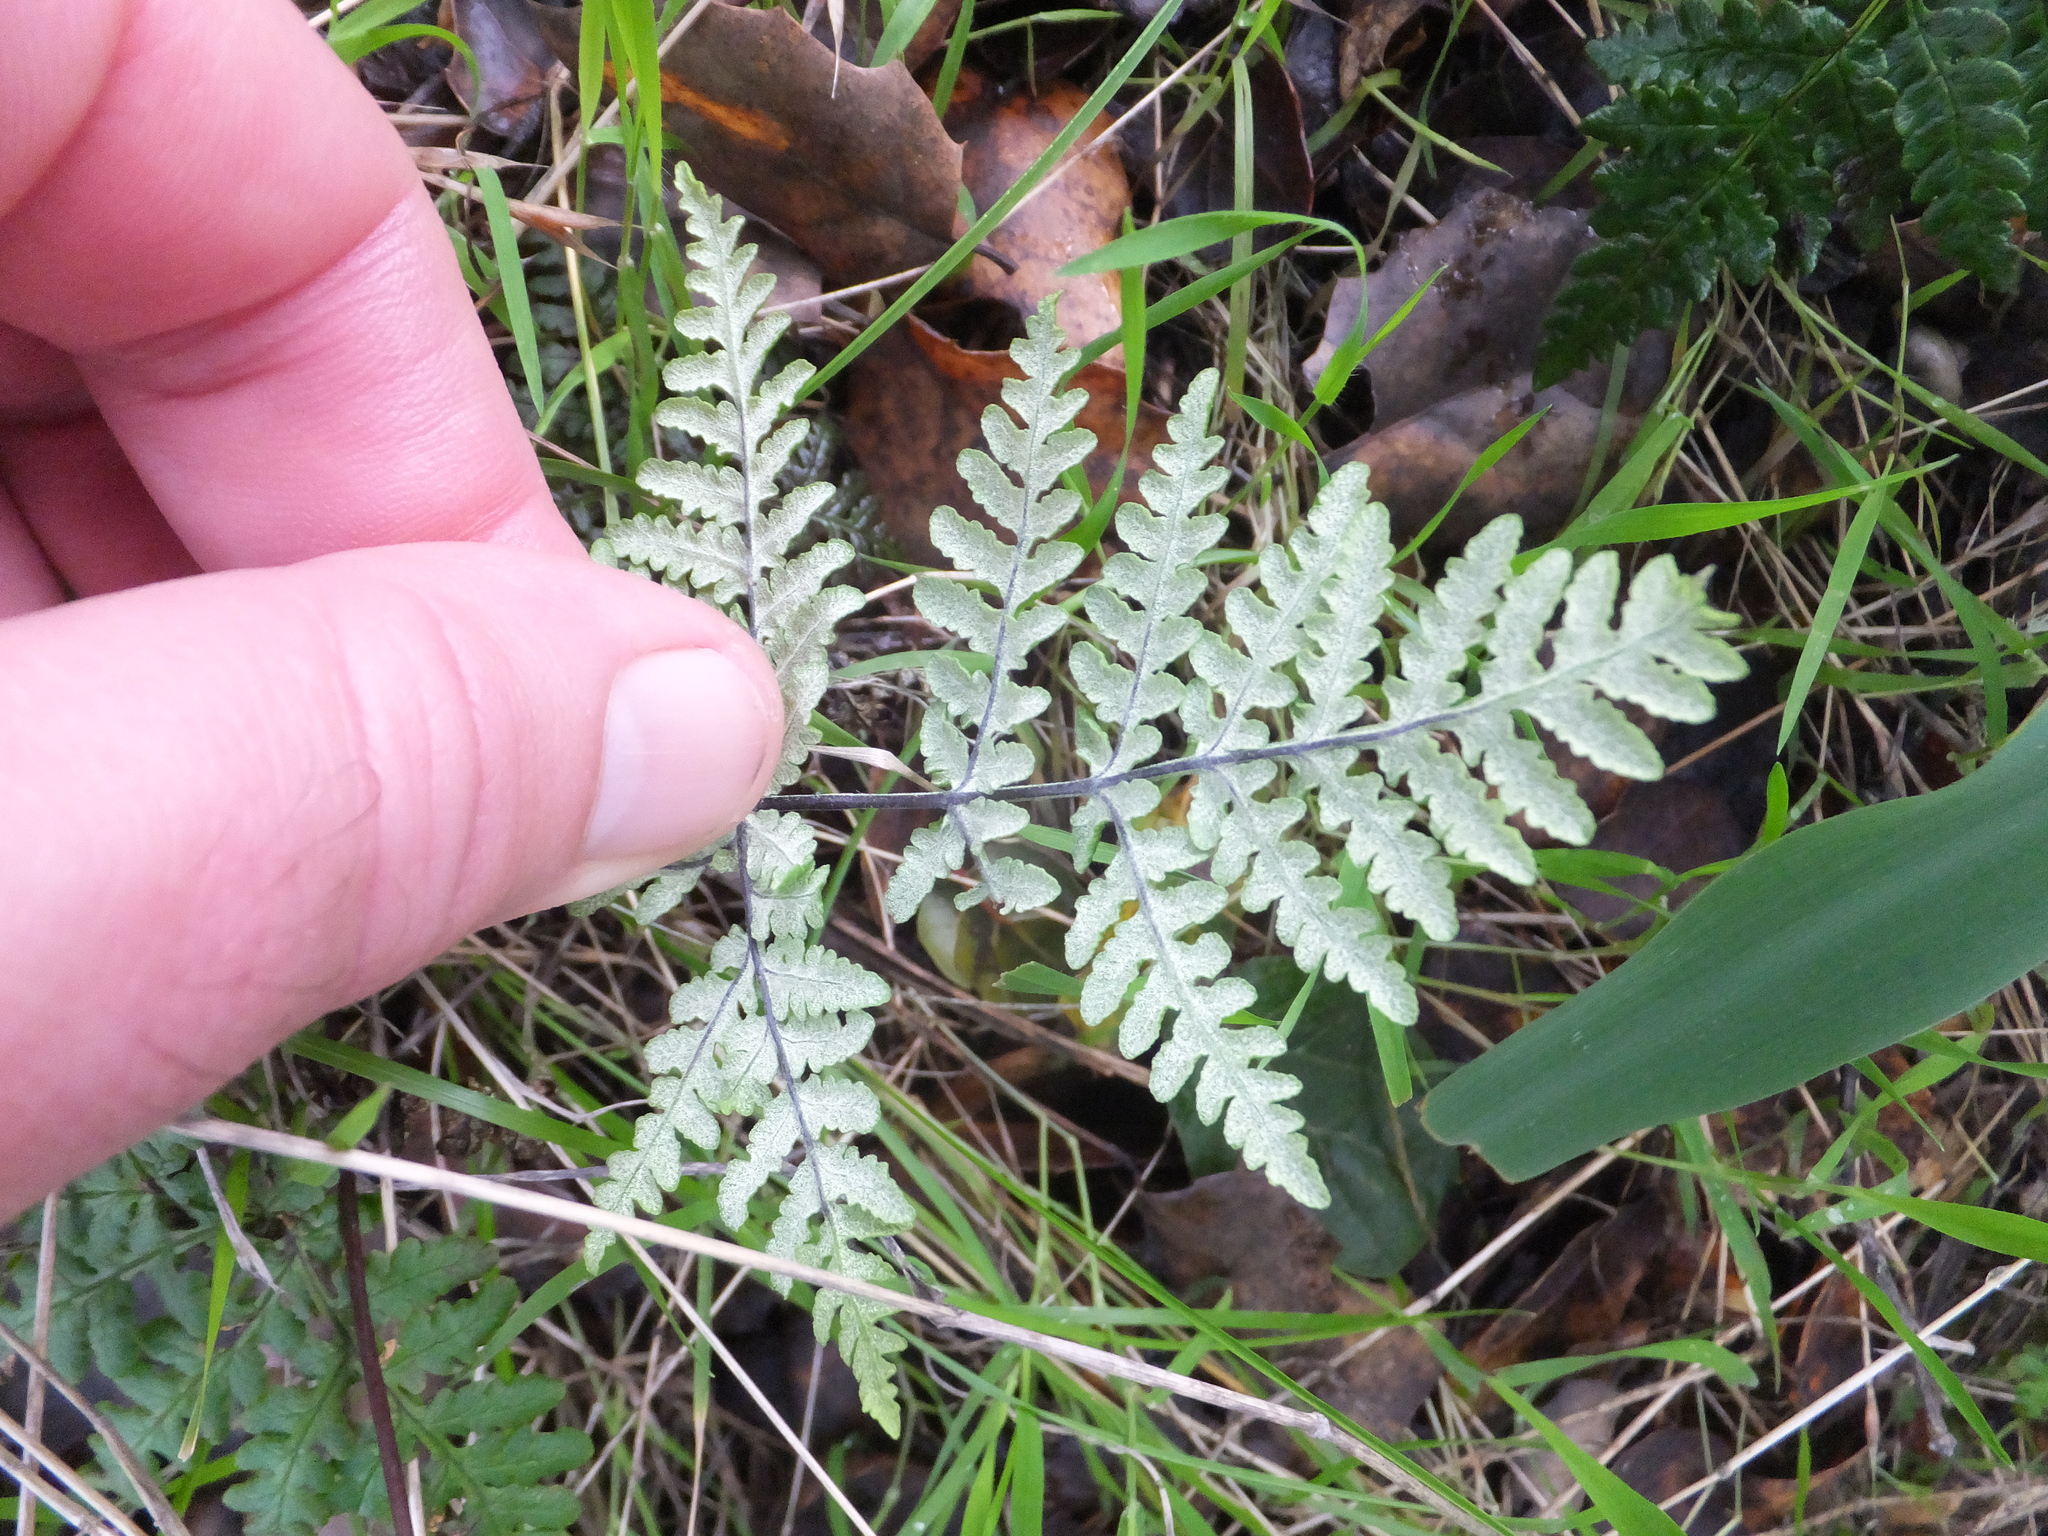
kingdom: Plantae
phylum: Tracheophyta
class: Polypodiopsida
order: Polypodiales
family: Pteridaceae
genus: Pentagramma
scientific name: Pentagramma triangularis
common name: Gold fern
